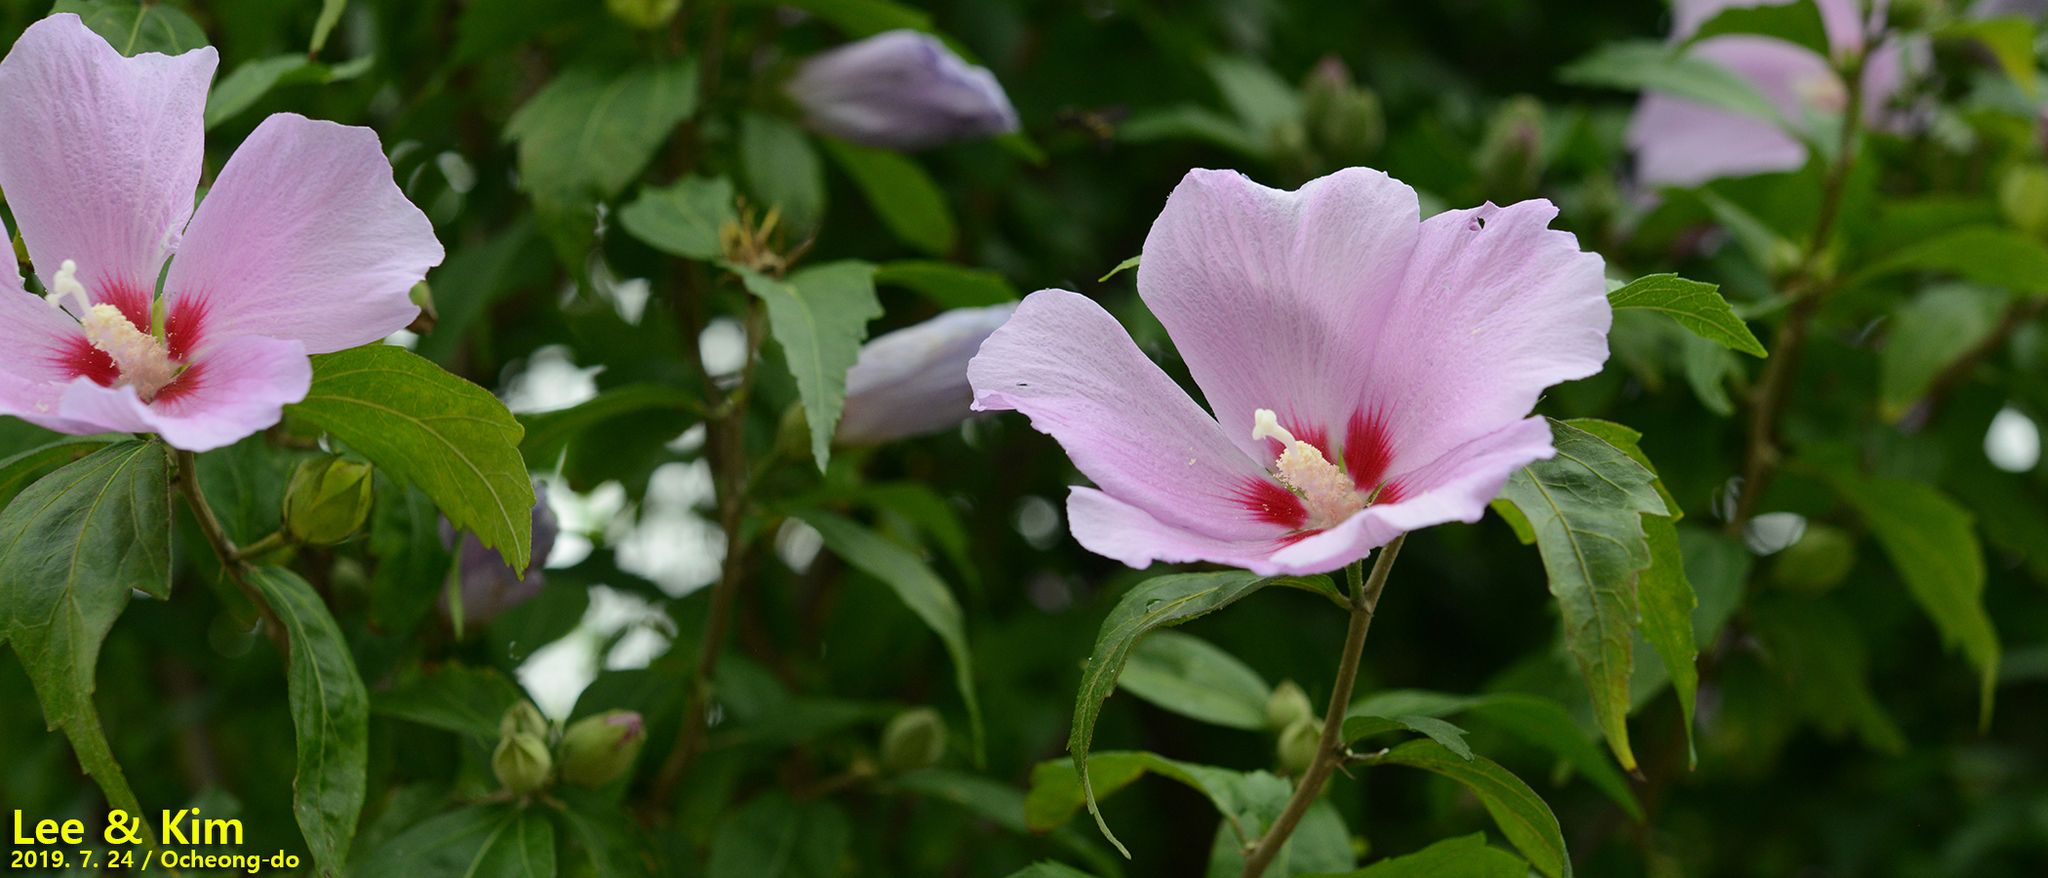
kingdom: Plantae
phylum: Tracheophyta
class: Magnoliopsida
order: Malvales
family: Malvaceae
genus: Hibiscus
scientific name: Hibiscus syriacus
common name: Syrian ketmia
